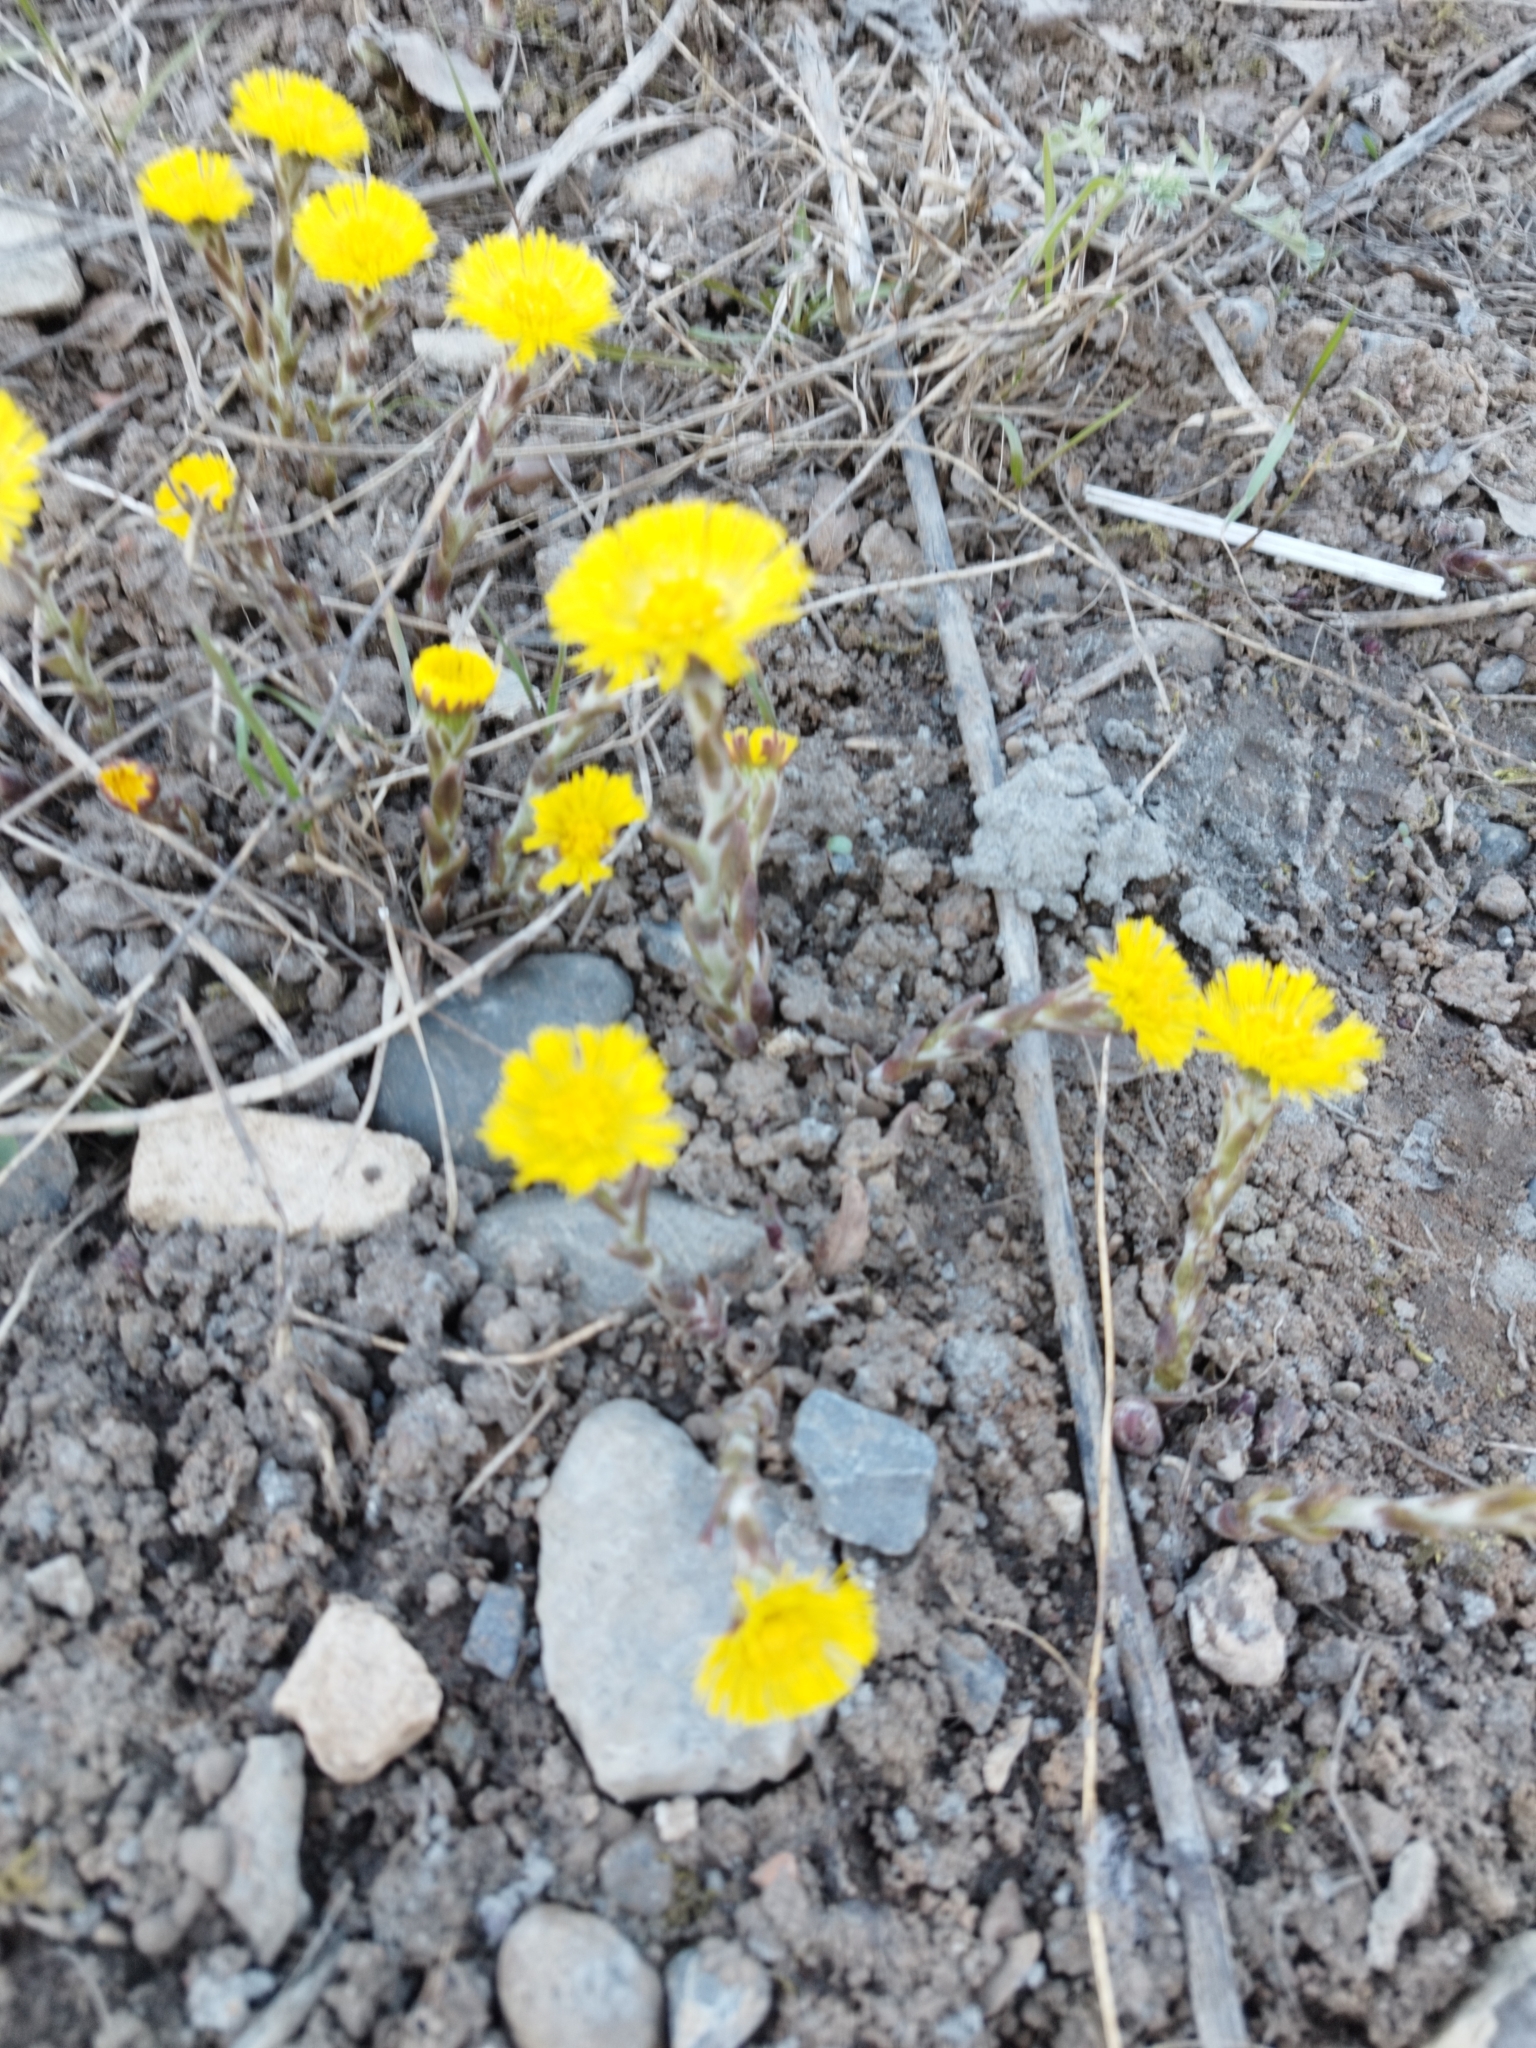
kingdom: Plantae
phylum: Tracheophyta
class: Magnoliopsida
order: Asterales
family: Asteraceae
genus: Tussilago
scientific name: Tussilago farfara
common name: Coltsfoot
